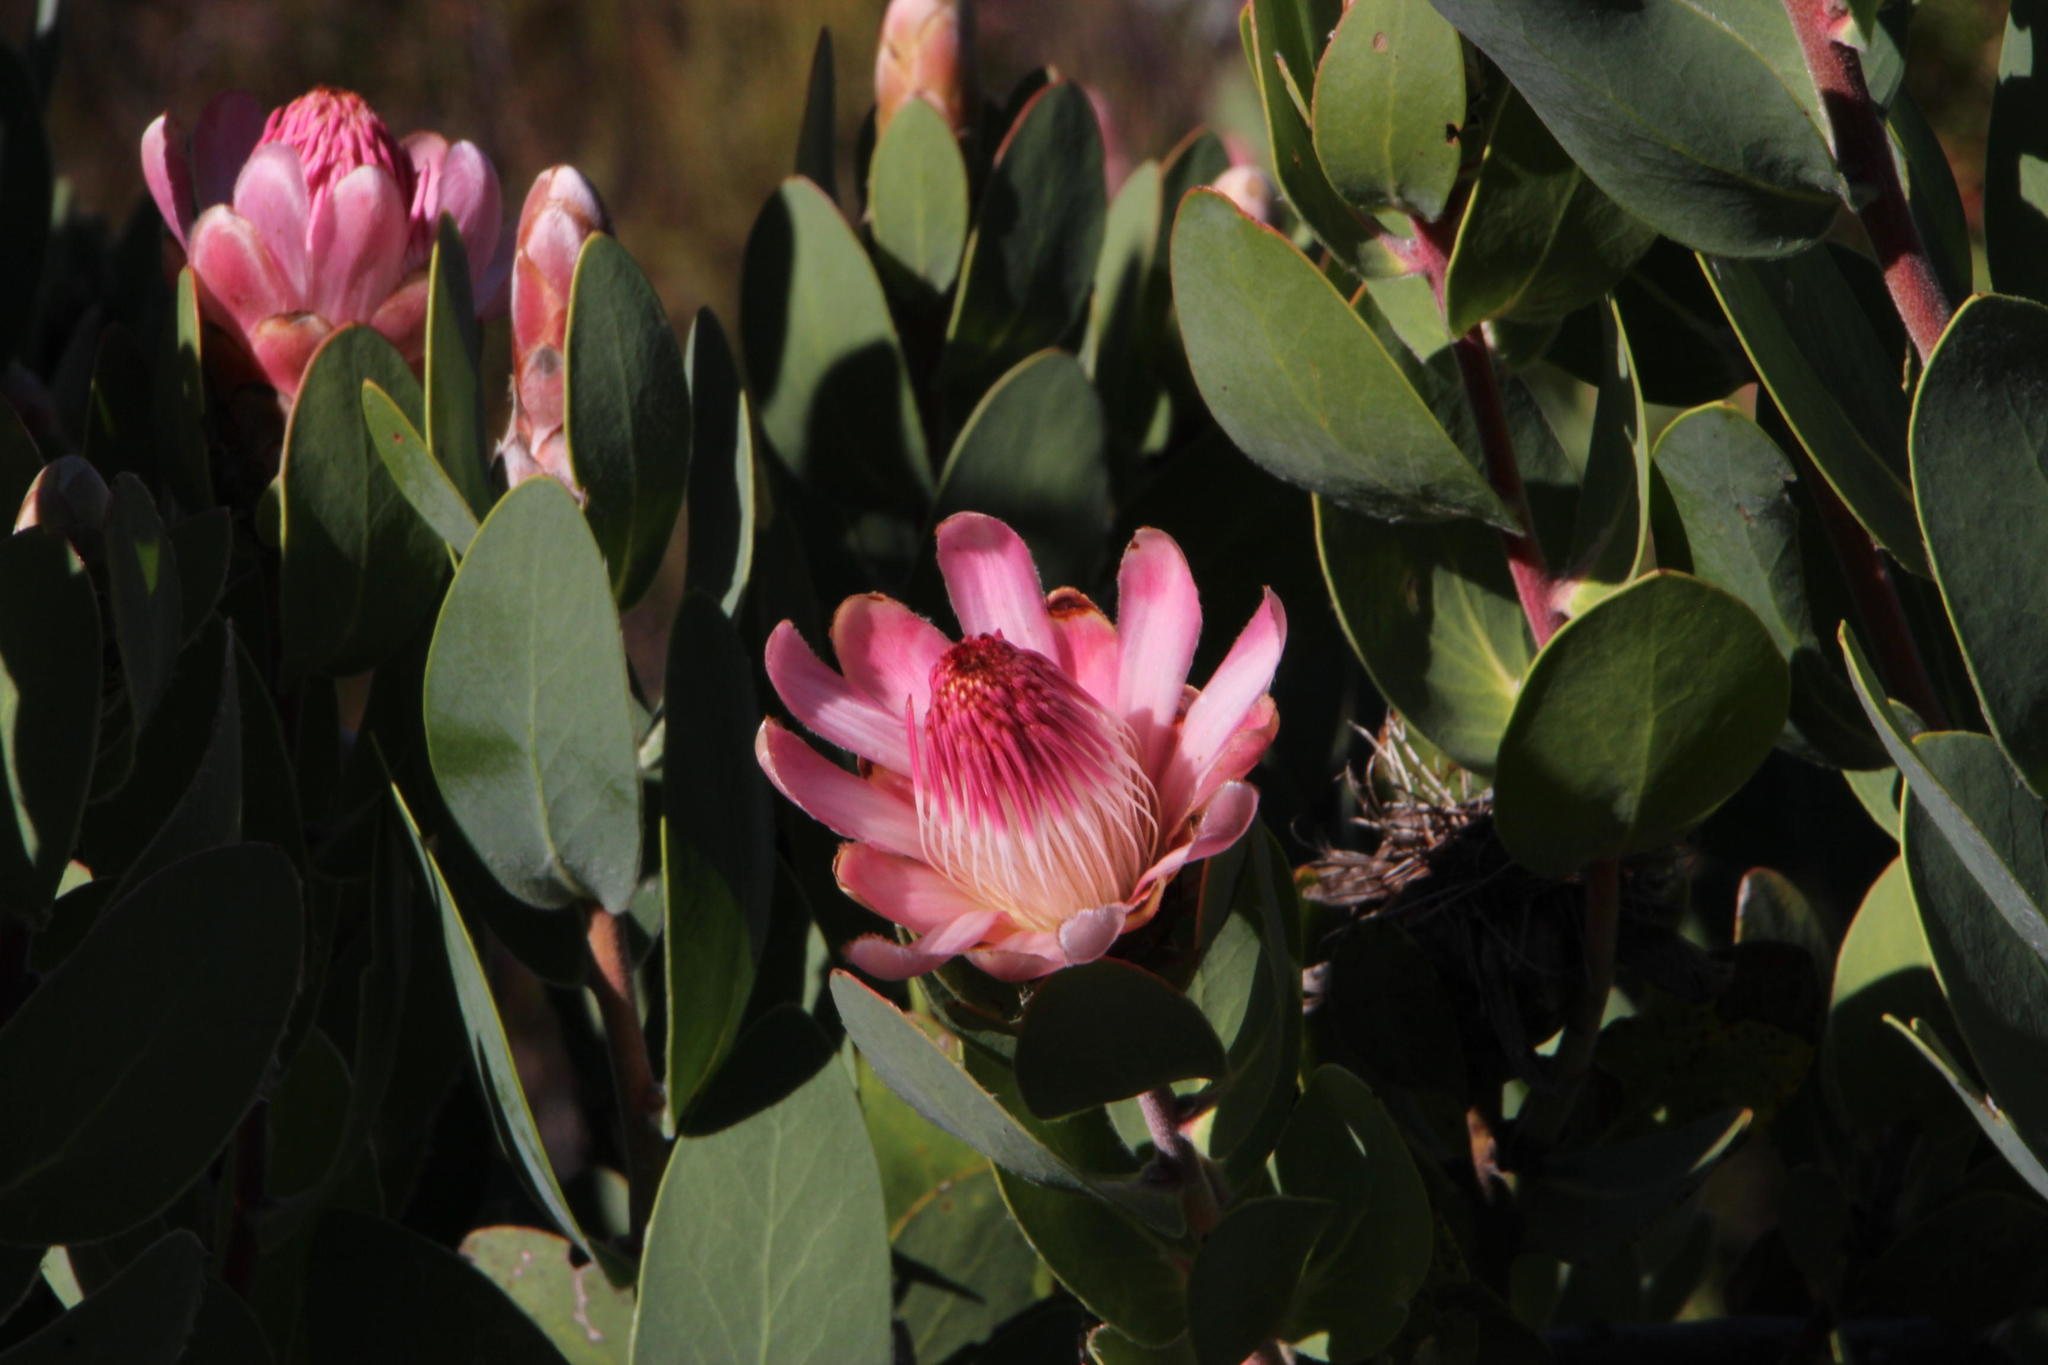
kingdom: Plantae
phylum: Tracheophyta
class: Magnoliopsida
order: Proteales
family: Proteaceae
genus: Protea
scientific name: Protea punctata
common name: Water sugarbush
